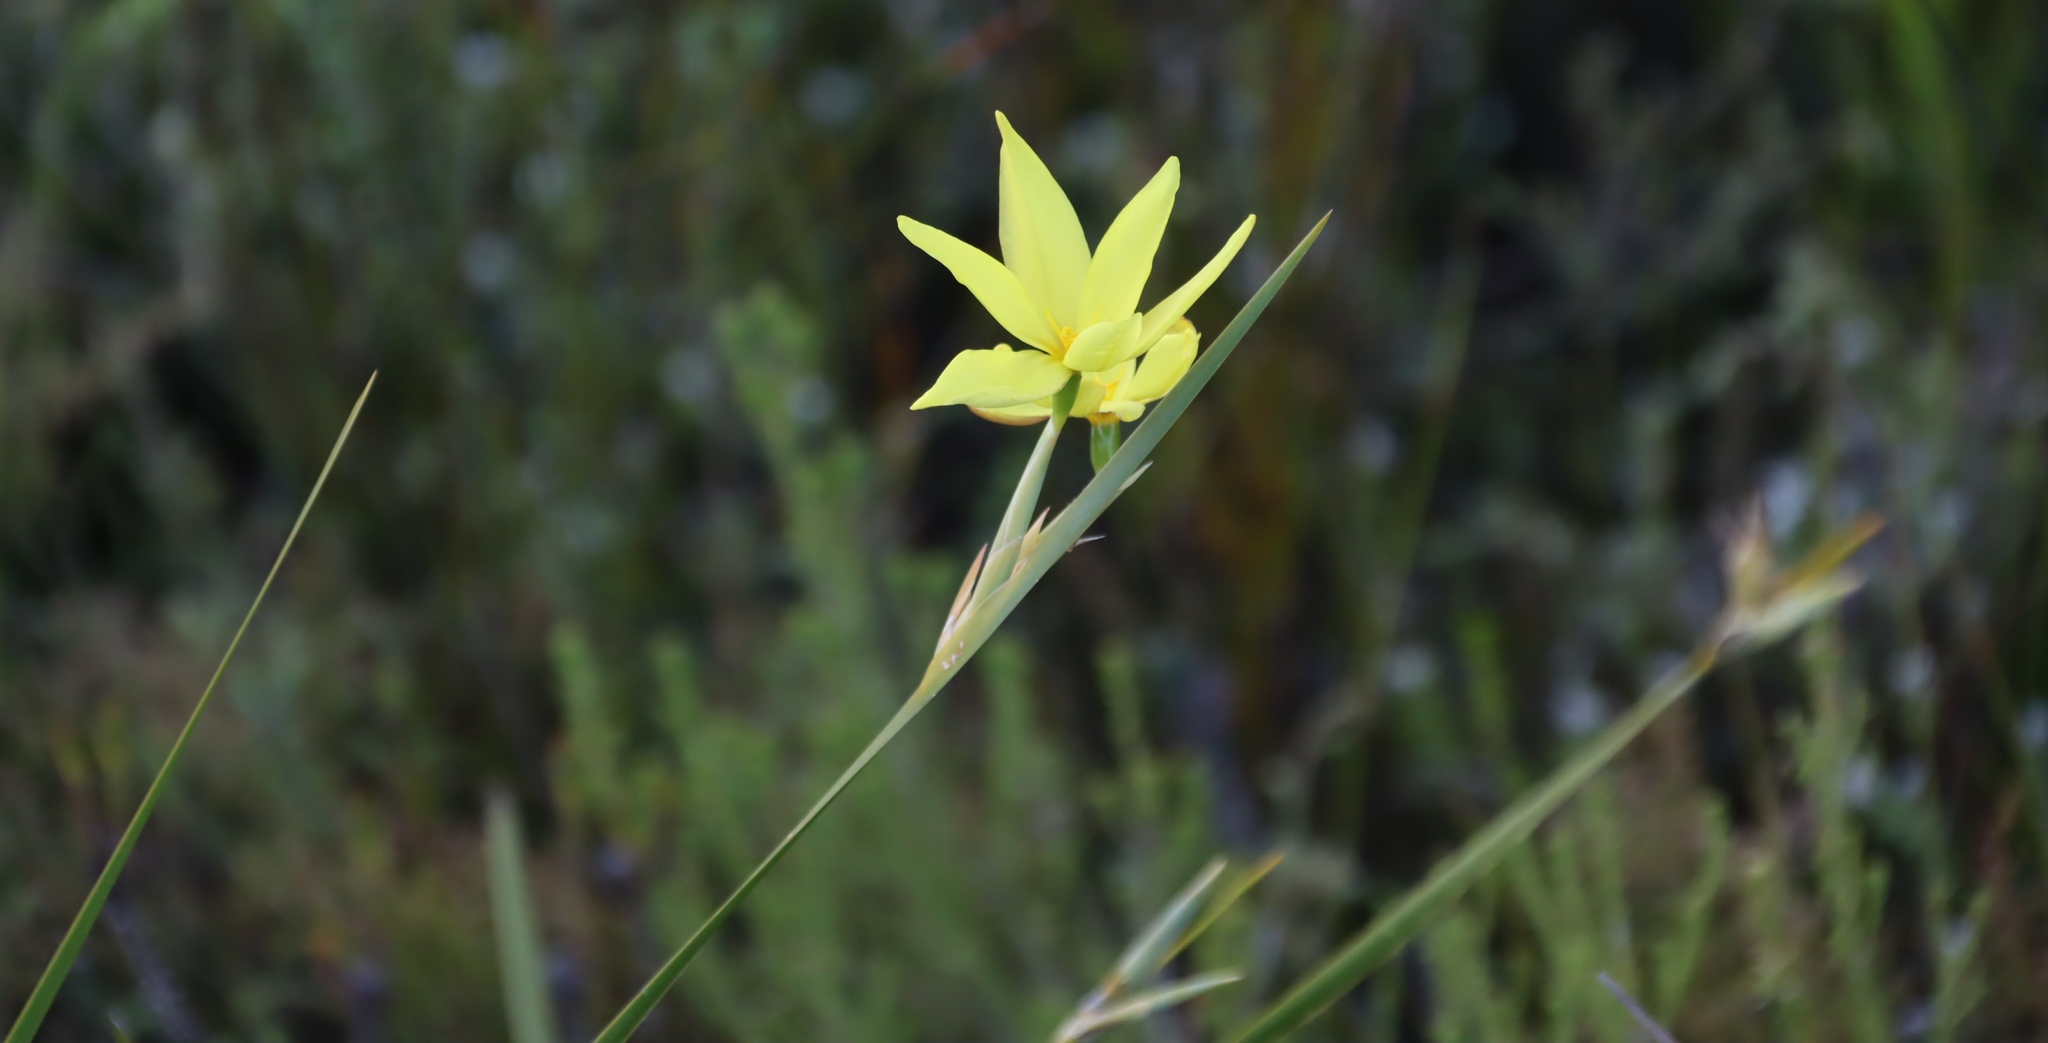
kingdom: Plantae
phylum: Tracheophyta
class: Liliopsida
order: Asparagales
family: Iridaceae
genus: Bobartia
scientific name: Bobartia gladiata
